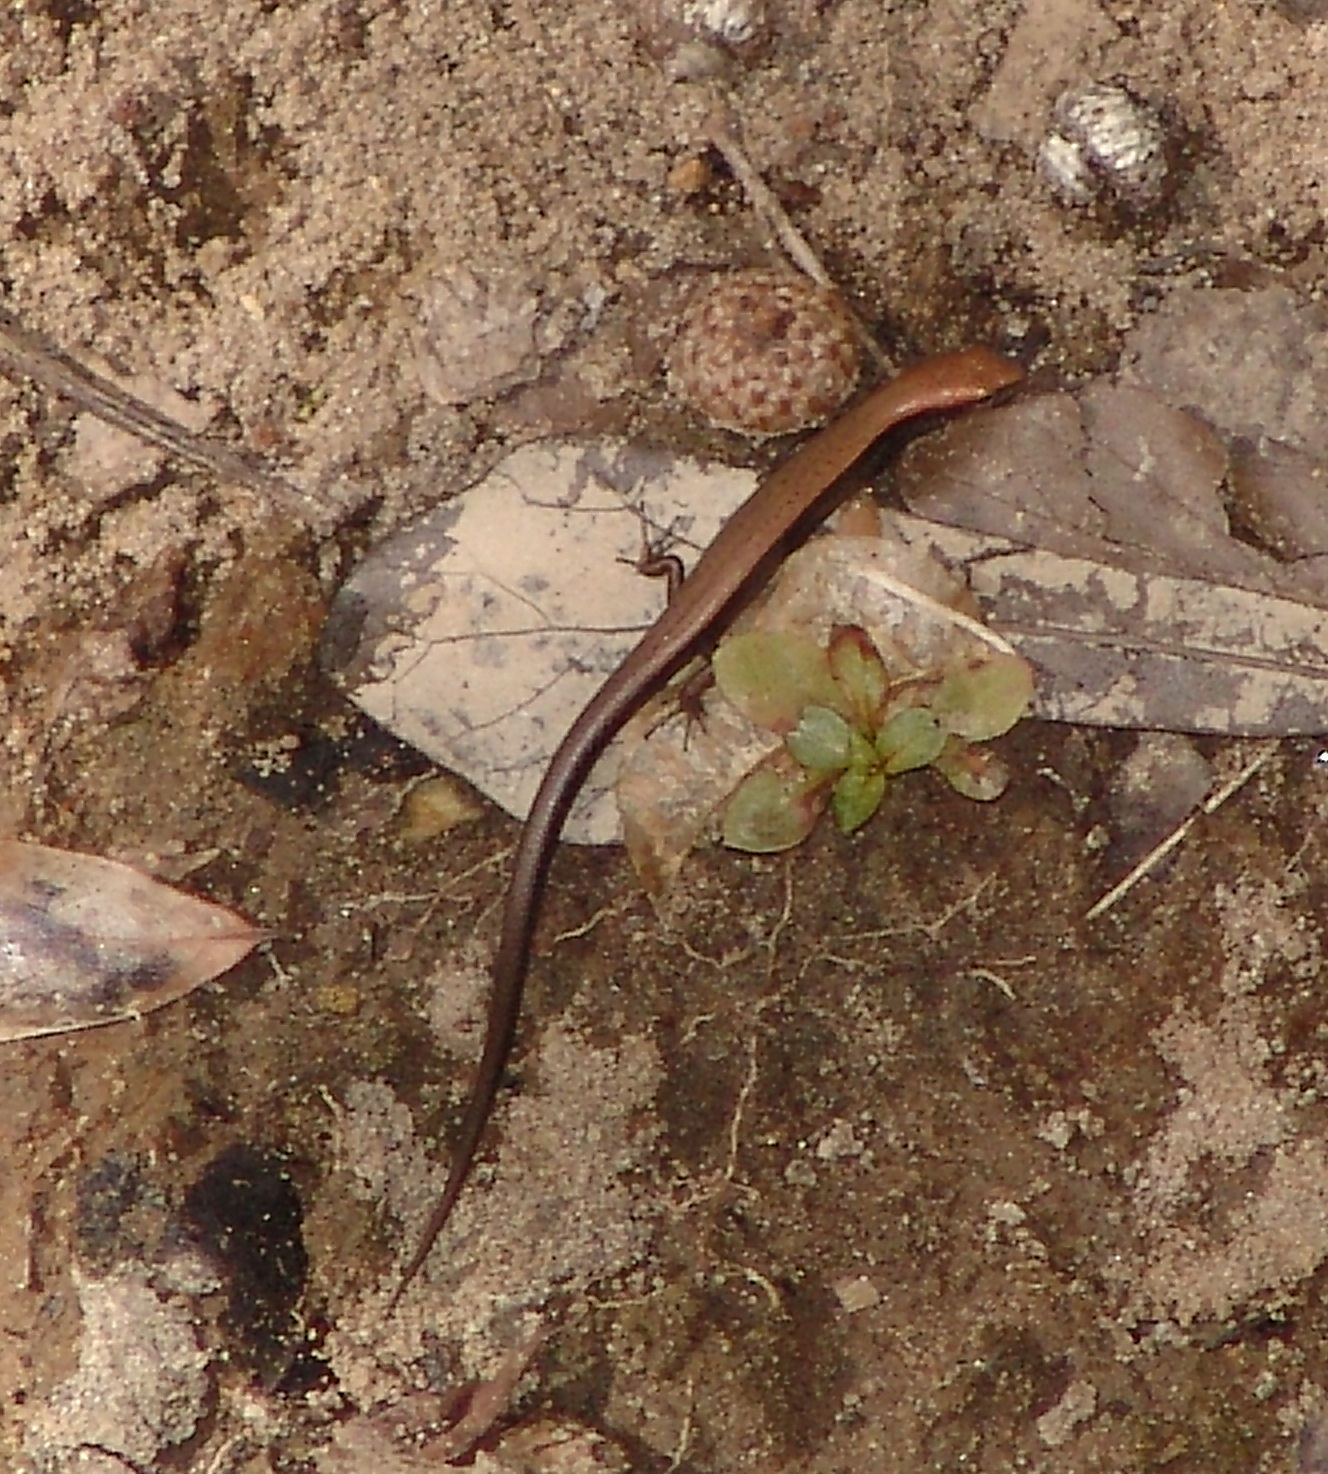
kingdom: Animalia
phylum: Chordata
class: Squamata
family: Scincidae
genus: Scincella
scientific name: Scincella lateralis
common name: Ground skink
